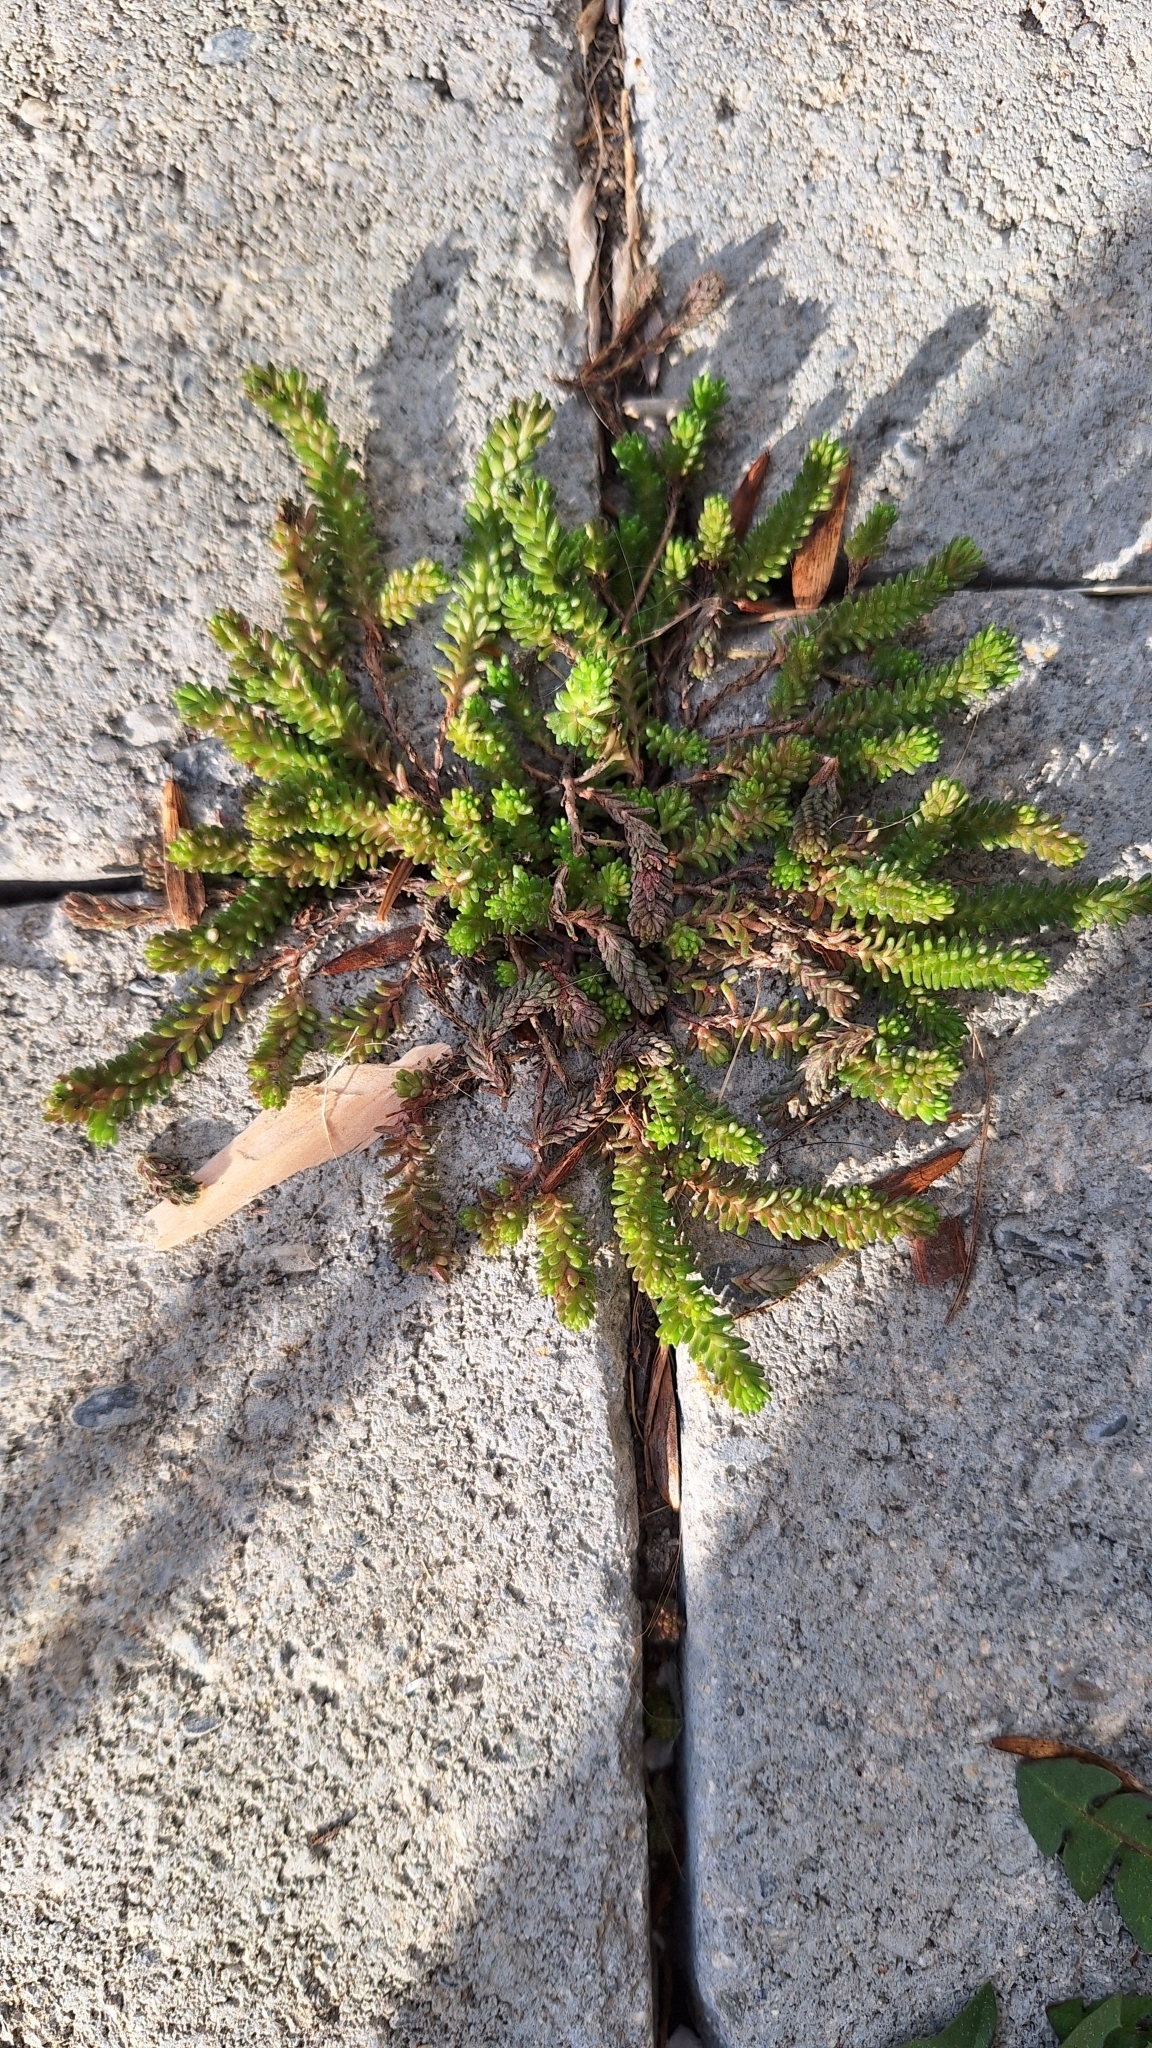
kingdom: Plantae
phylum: Tracheophyta
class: Magnoliopsida
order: Saxifragales
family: Crassulaceae
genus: Sedum
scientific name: Sedum sexangulare
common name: Tasteless stonecrop
